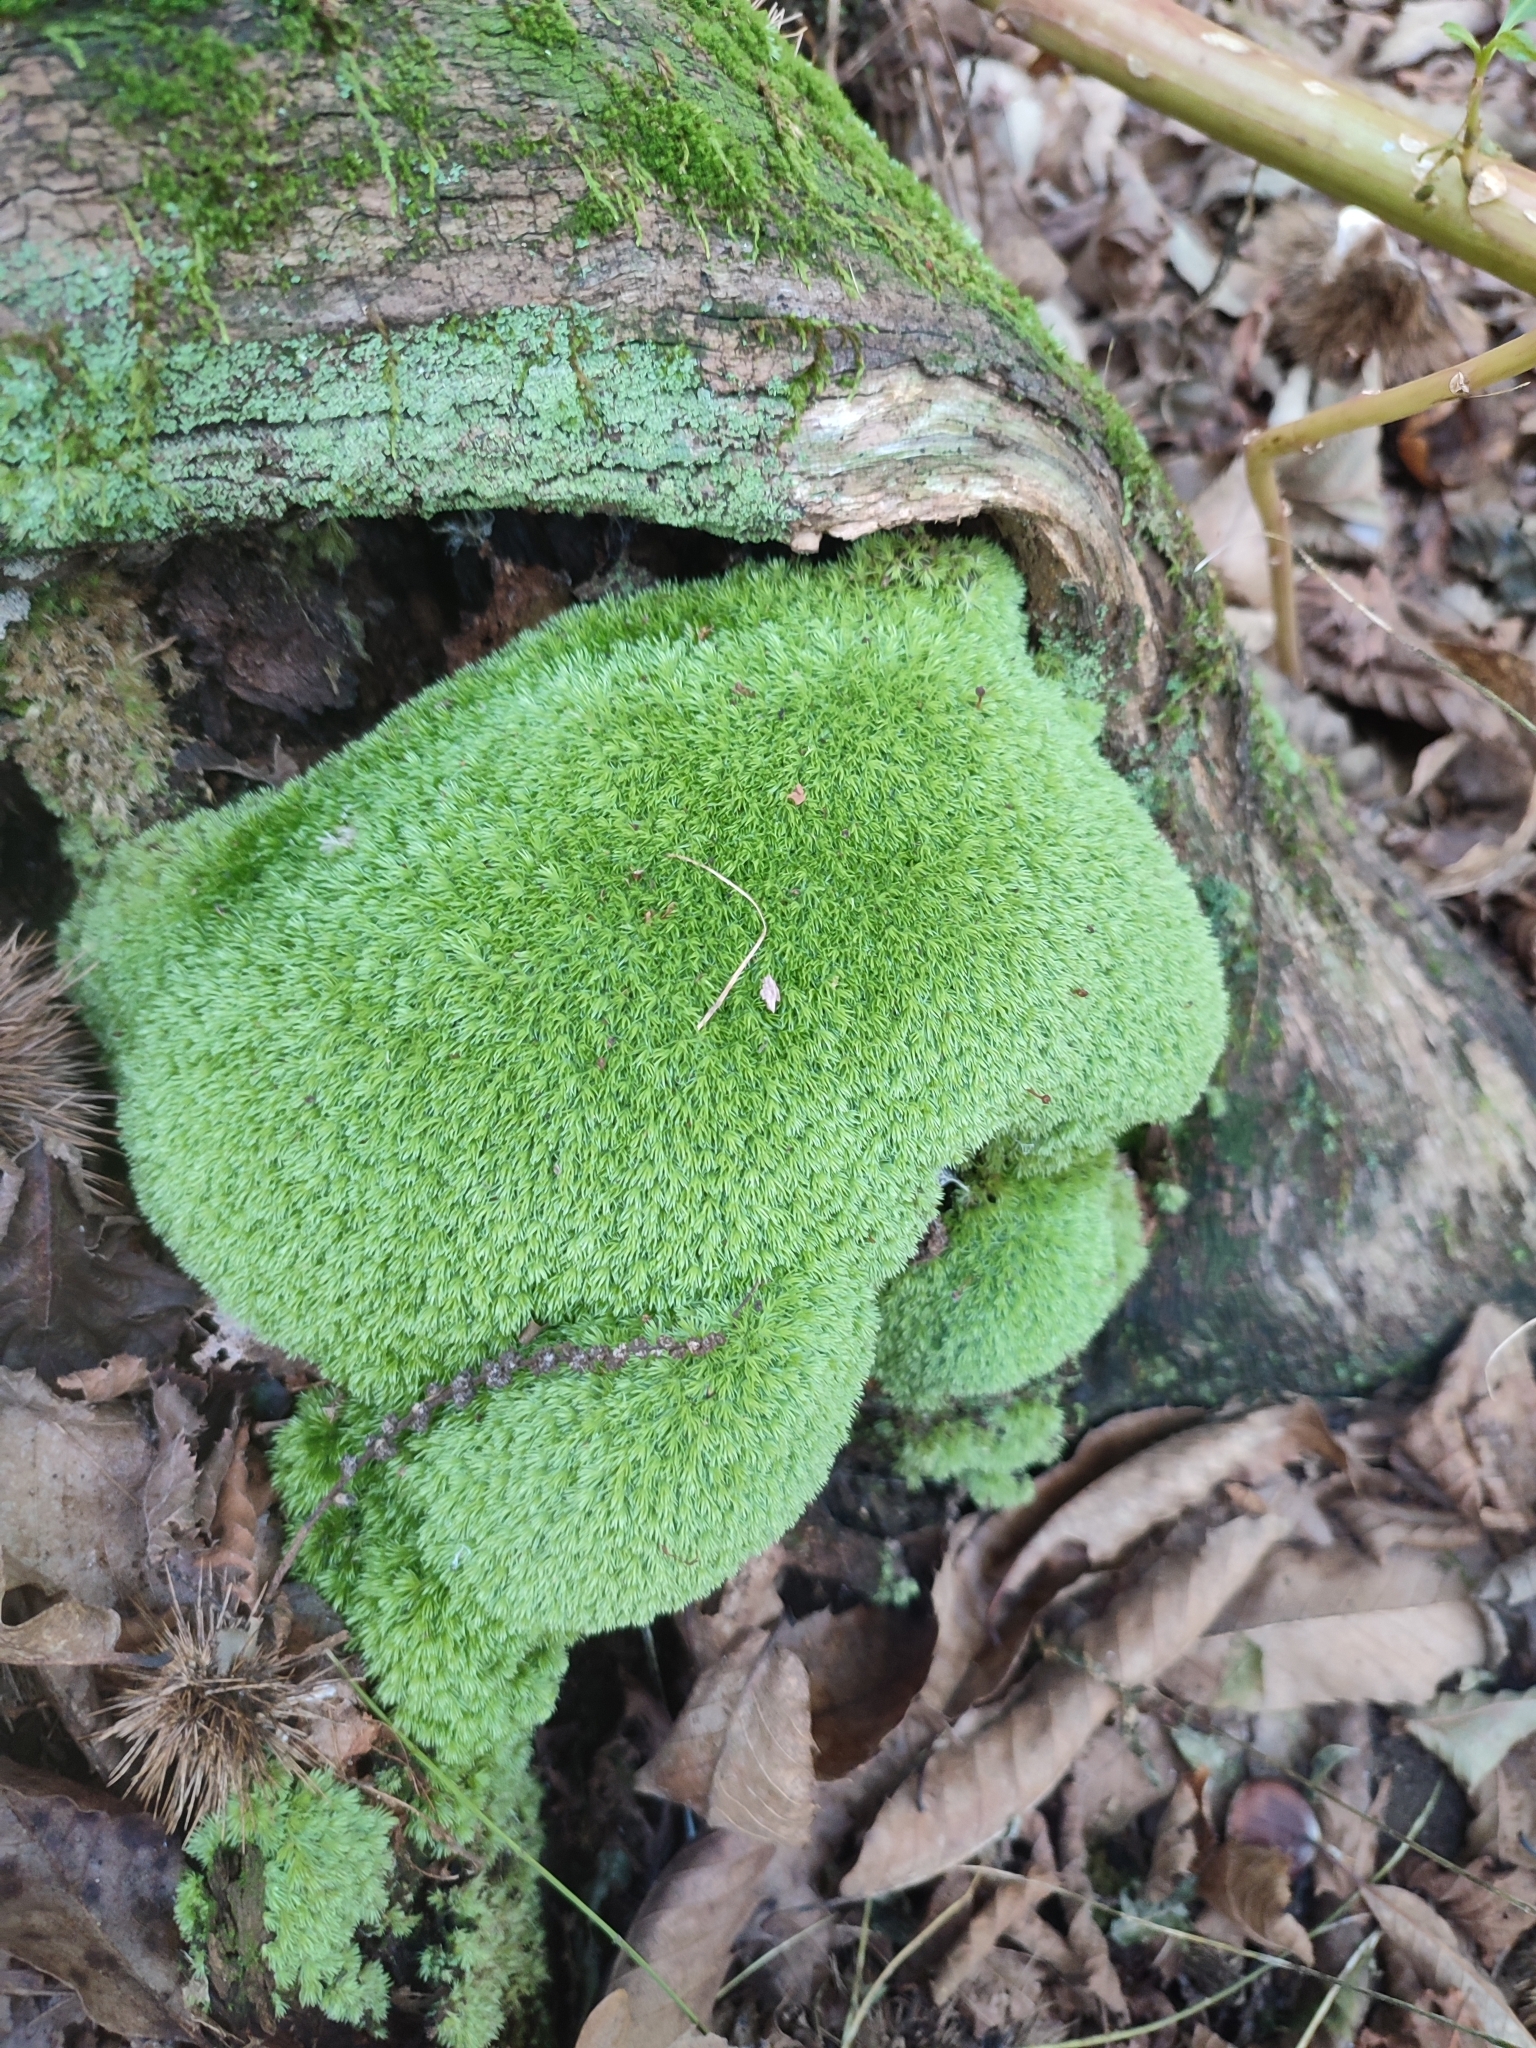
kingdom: Plantae
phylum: Bryophyta
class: Bryopsida
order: Dicranales
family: Leucobryaceae
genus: Leucobryum
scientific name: Leucobryum glaucum
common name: Large white-moss
